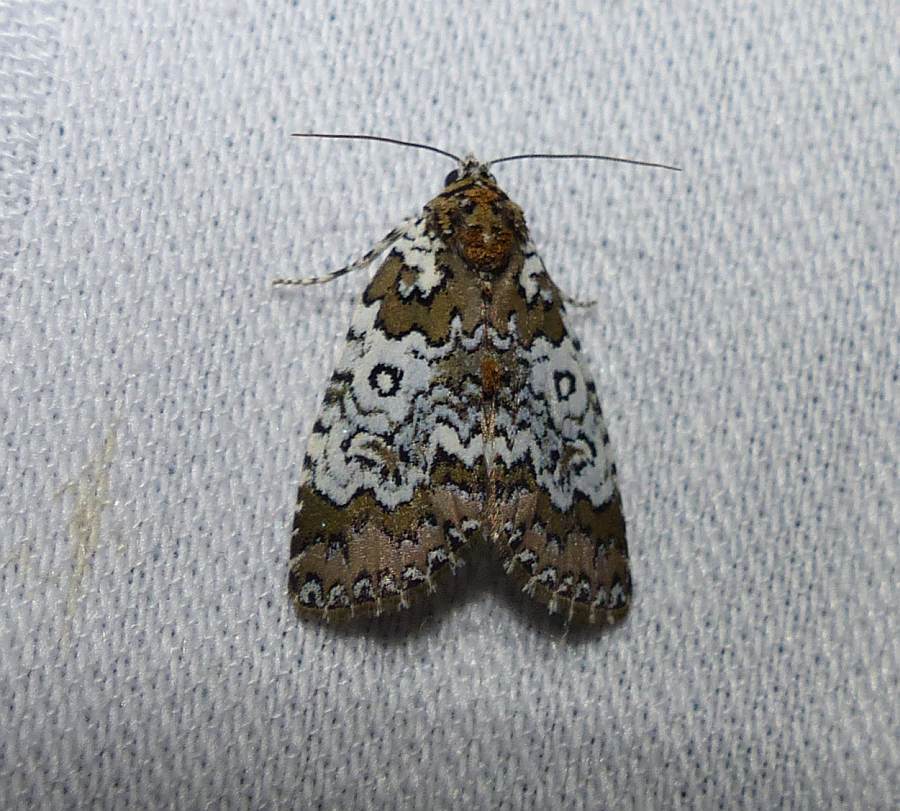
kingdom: Animalia
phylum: Arthropoda
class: Insecta
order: Lepidoptera
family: Noctuidae
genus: Cerma
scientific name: Cerma cora
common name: Bird dropping moth
